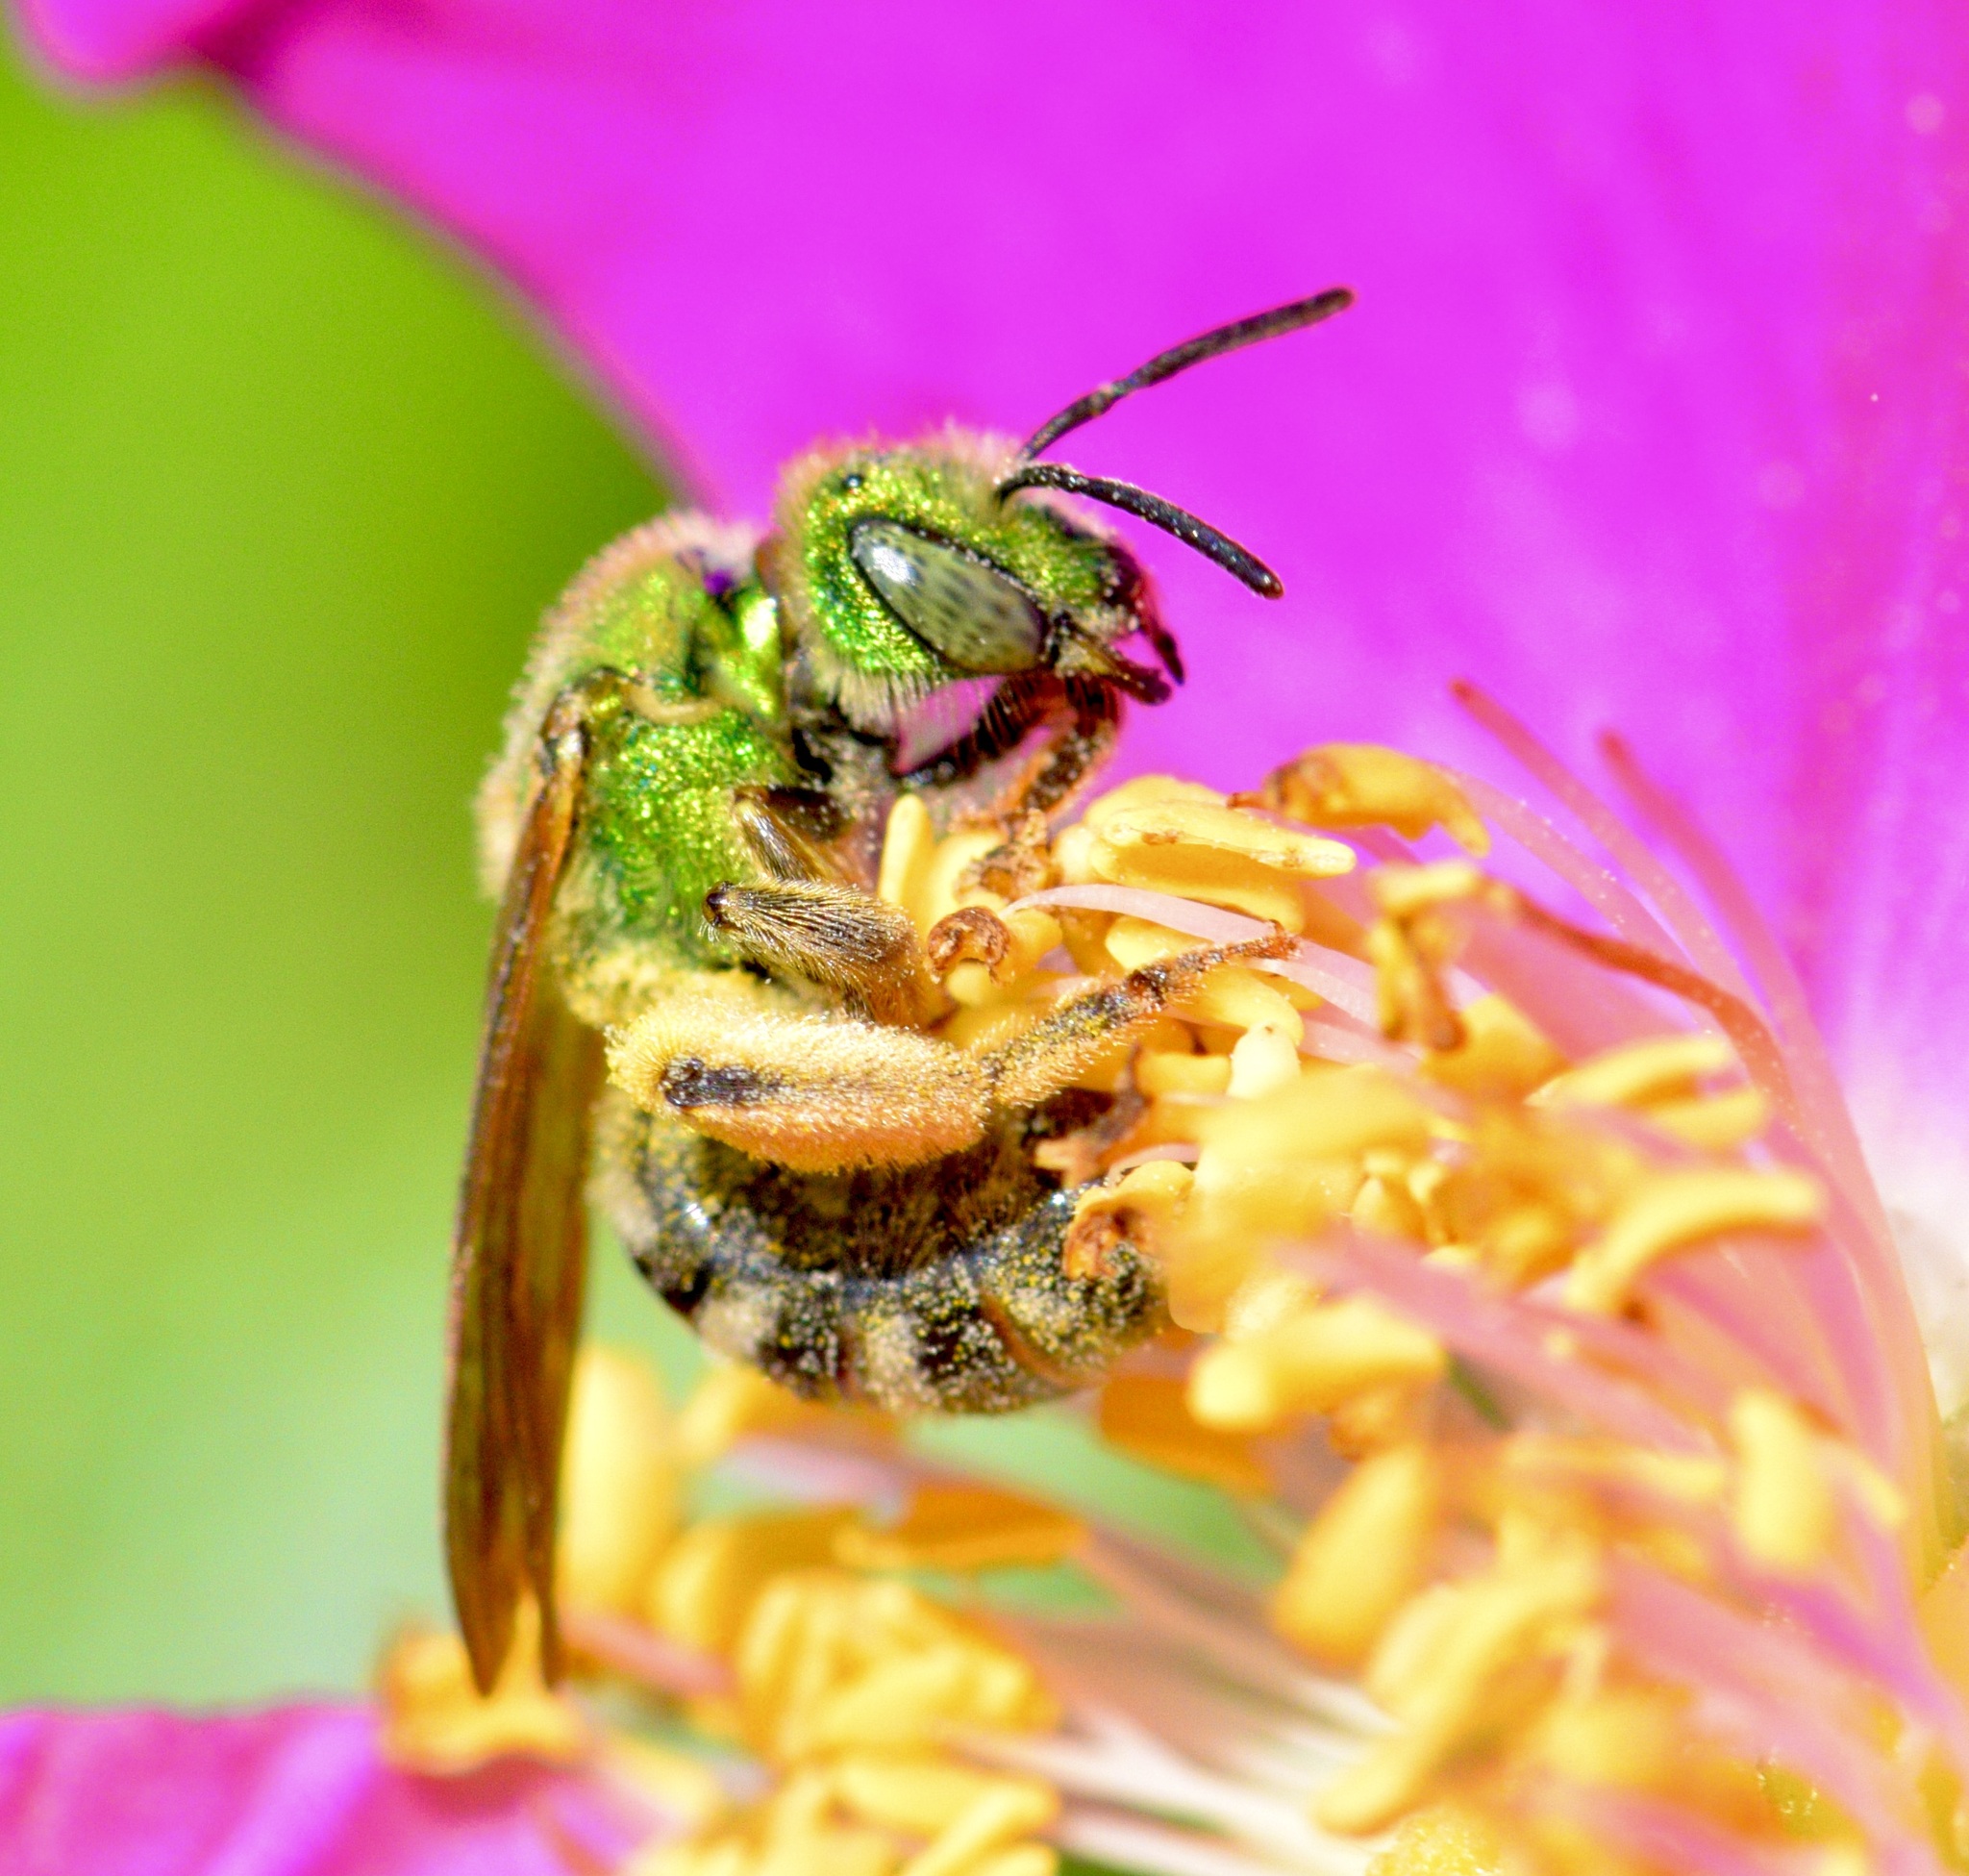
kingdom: Animalia
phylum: Arthropoda
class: Insecta
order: Hymenoptera
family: Halictidae
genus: Agapostemon
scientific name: Agapostemon virescens
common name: Bicolored striped sweat bee
